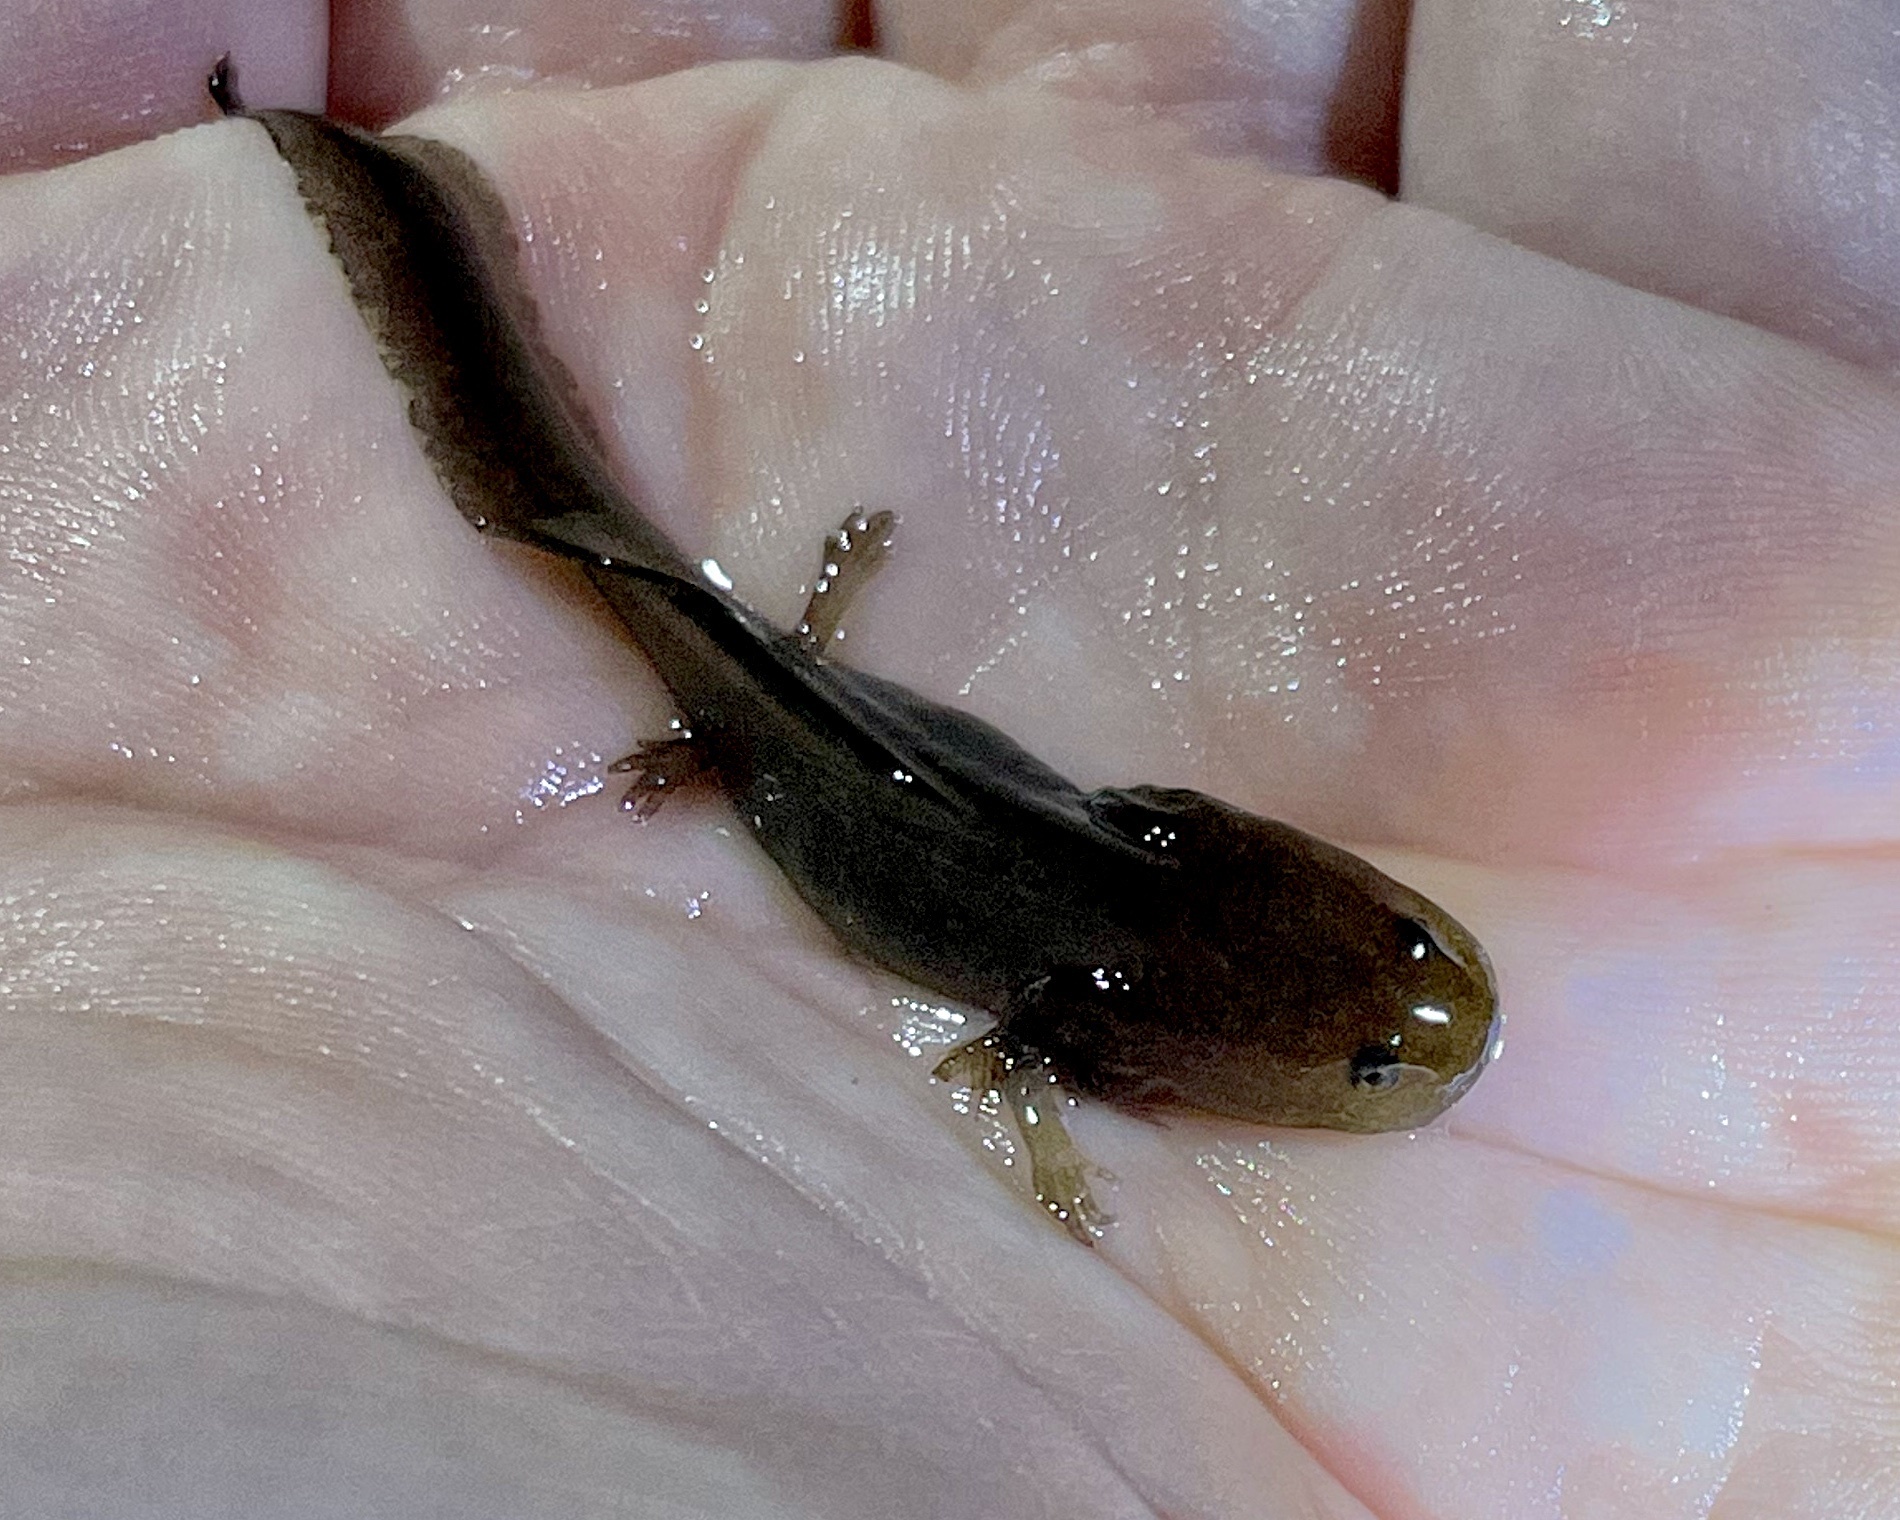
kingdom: Animalia
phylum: Chordata
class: Amphibia
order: Caudata
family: Ambystomatidae
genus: Ambystoma
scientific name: Ambystoma opacum
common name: Marbled salamander
